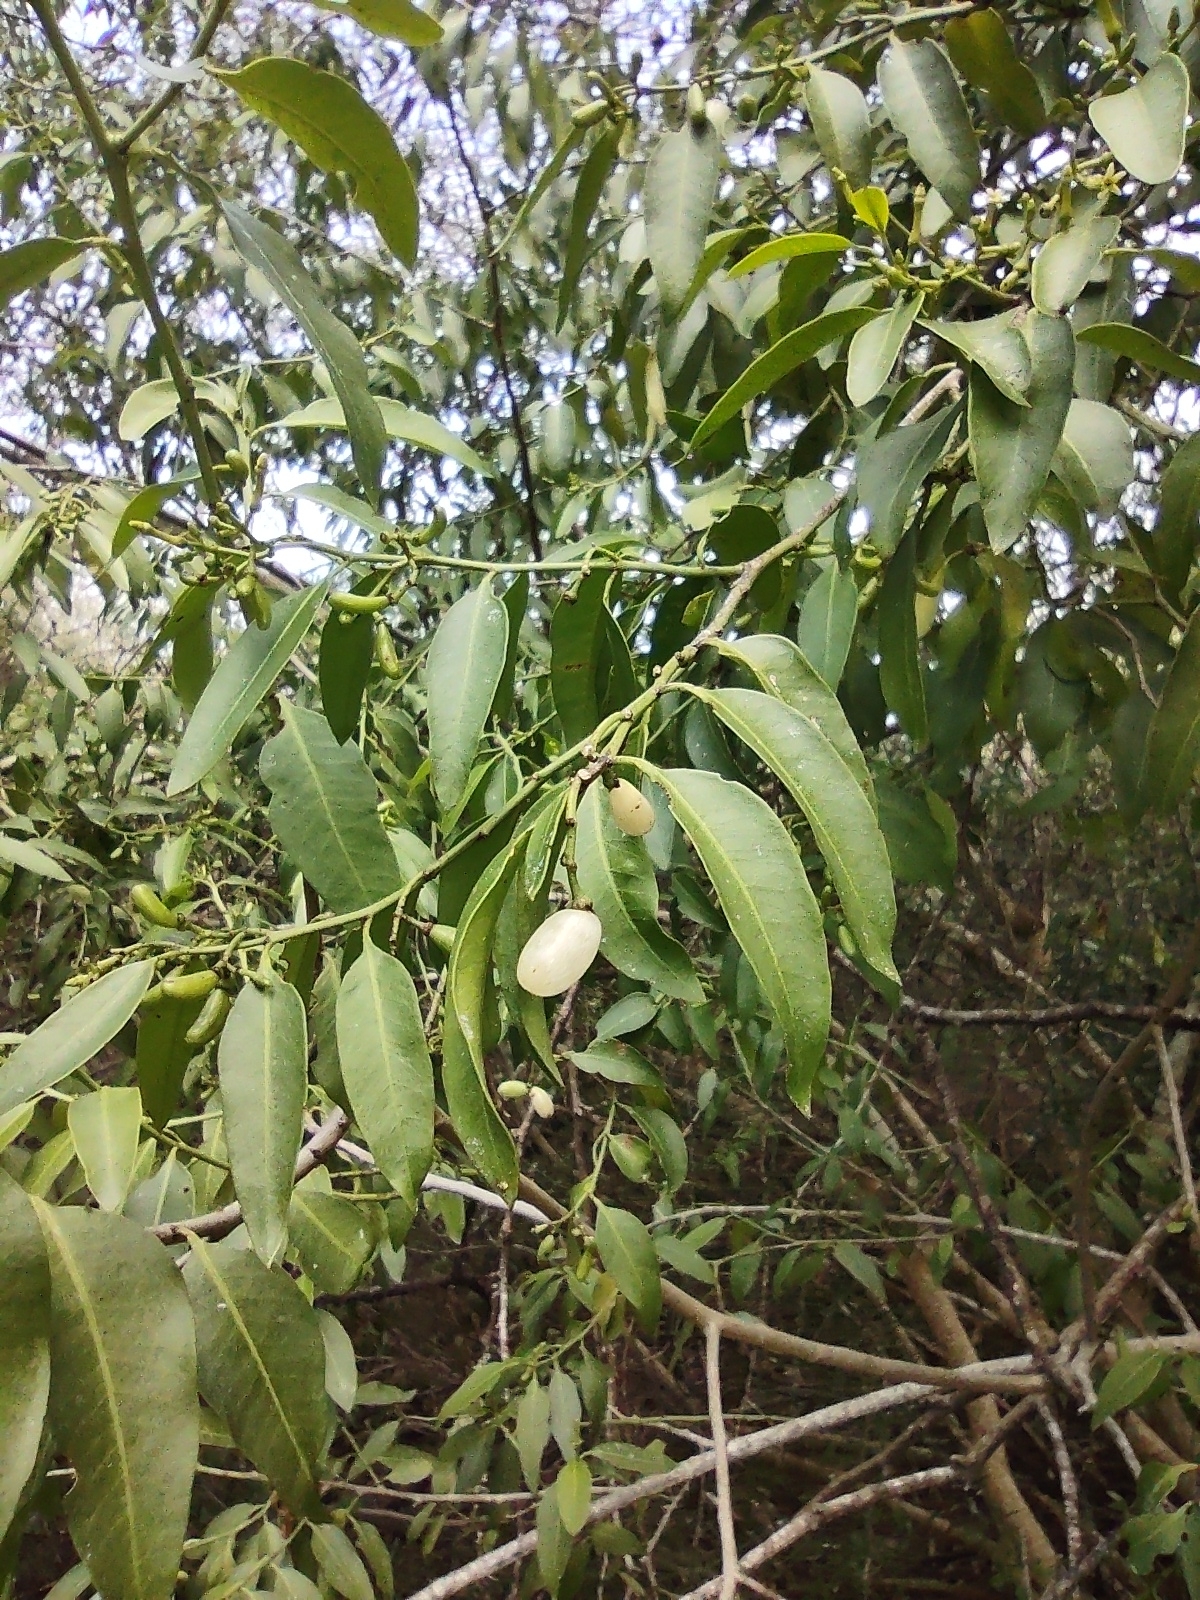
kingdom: Plantae
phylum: Tracheophyta
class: Magnoliopsida
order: Gentianales
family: Apocynaceae
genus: Vallesia
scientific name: Vallesia glabra
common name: Pearlberry
